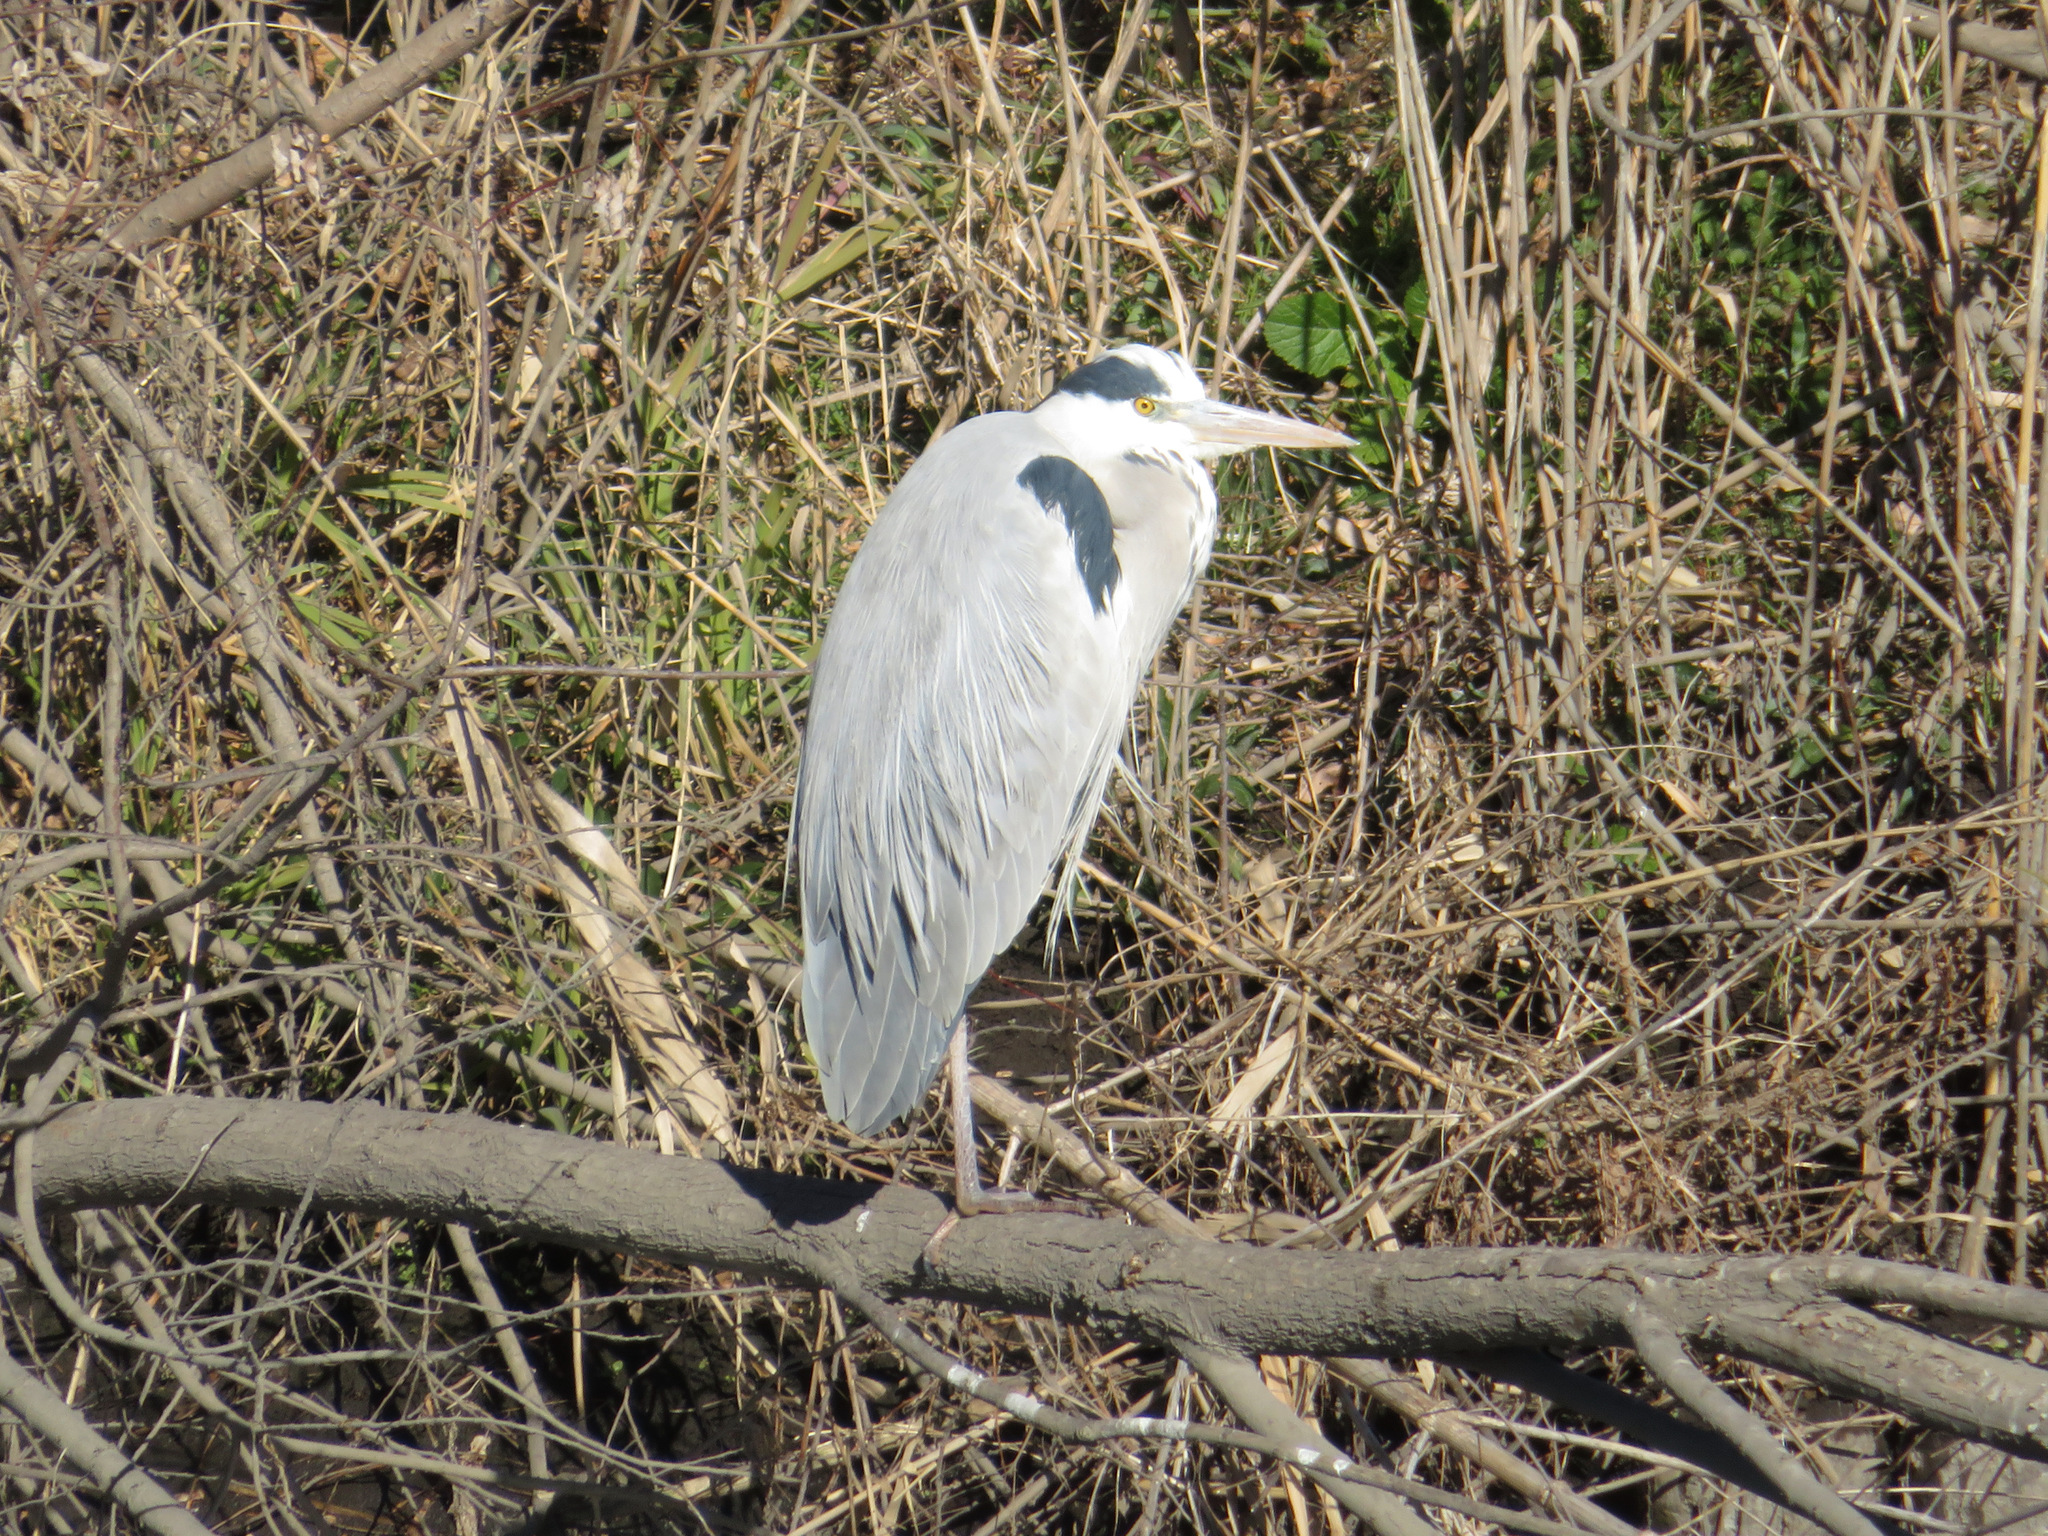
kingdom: Animalia
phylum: Chordata
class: Aves
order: Pelecaniformes
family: Ardeidae
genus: Ardea
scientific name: Ardea cinerea
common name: Grey heron
